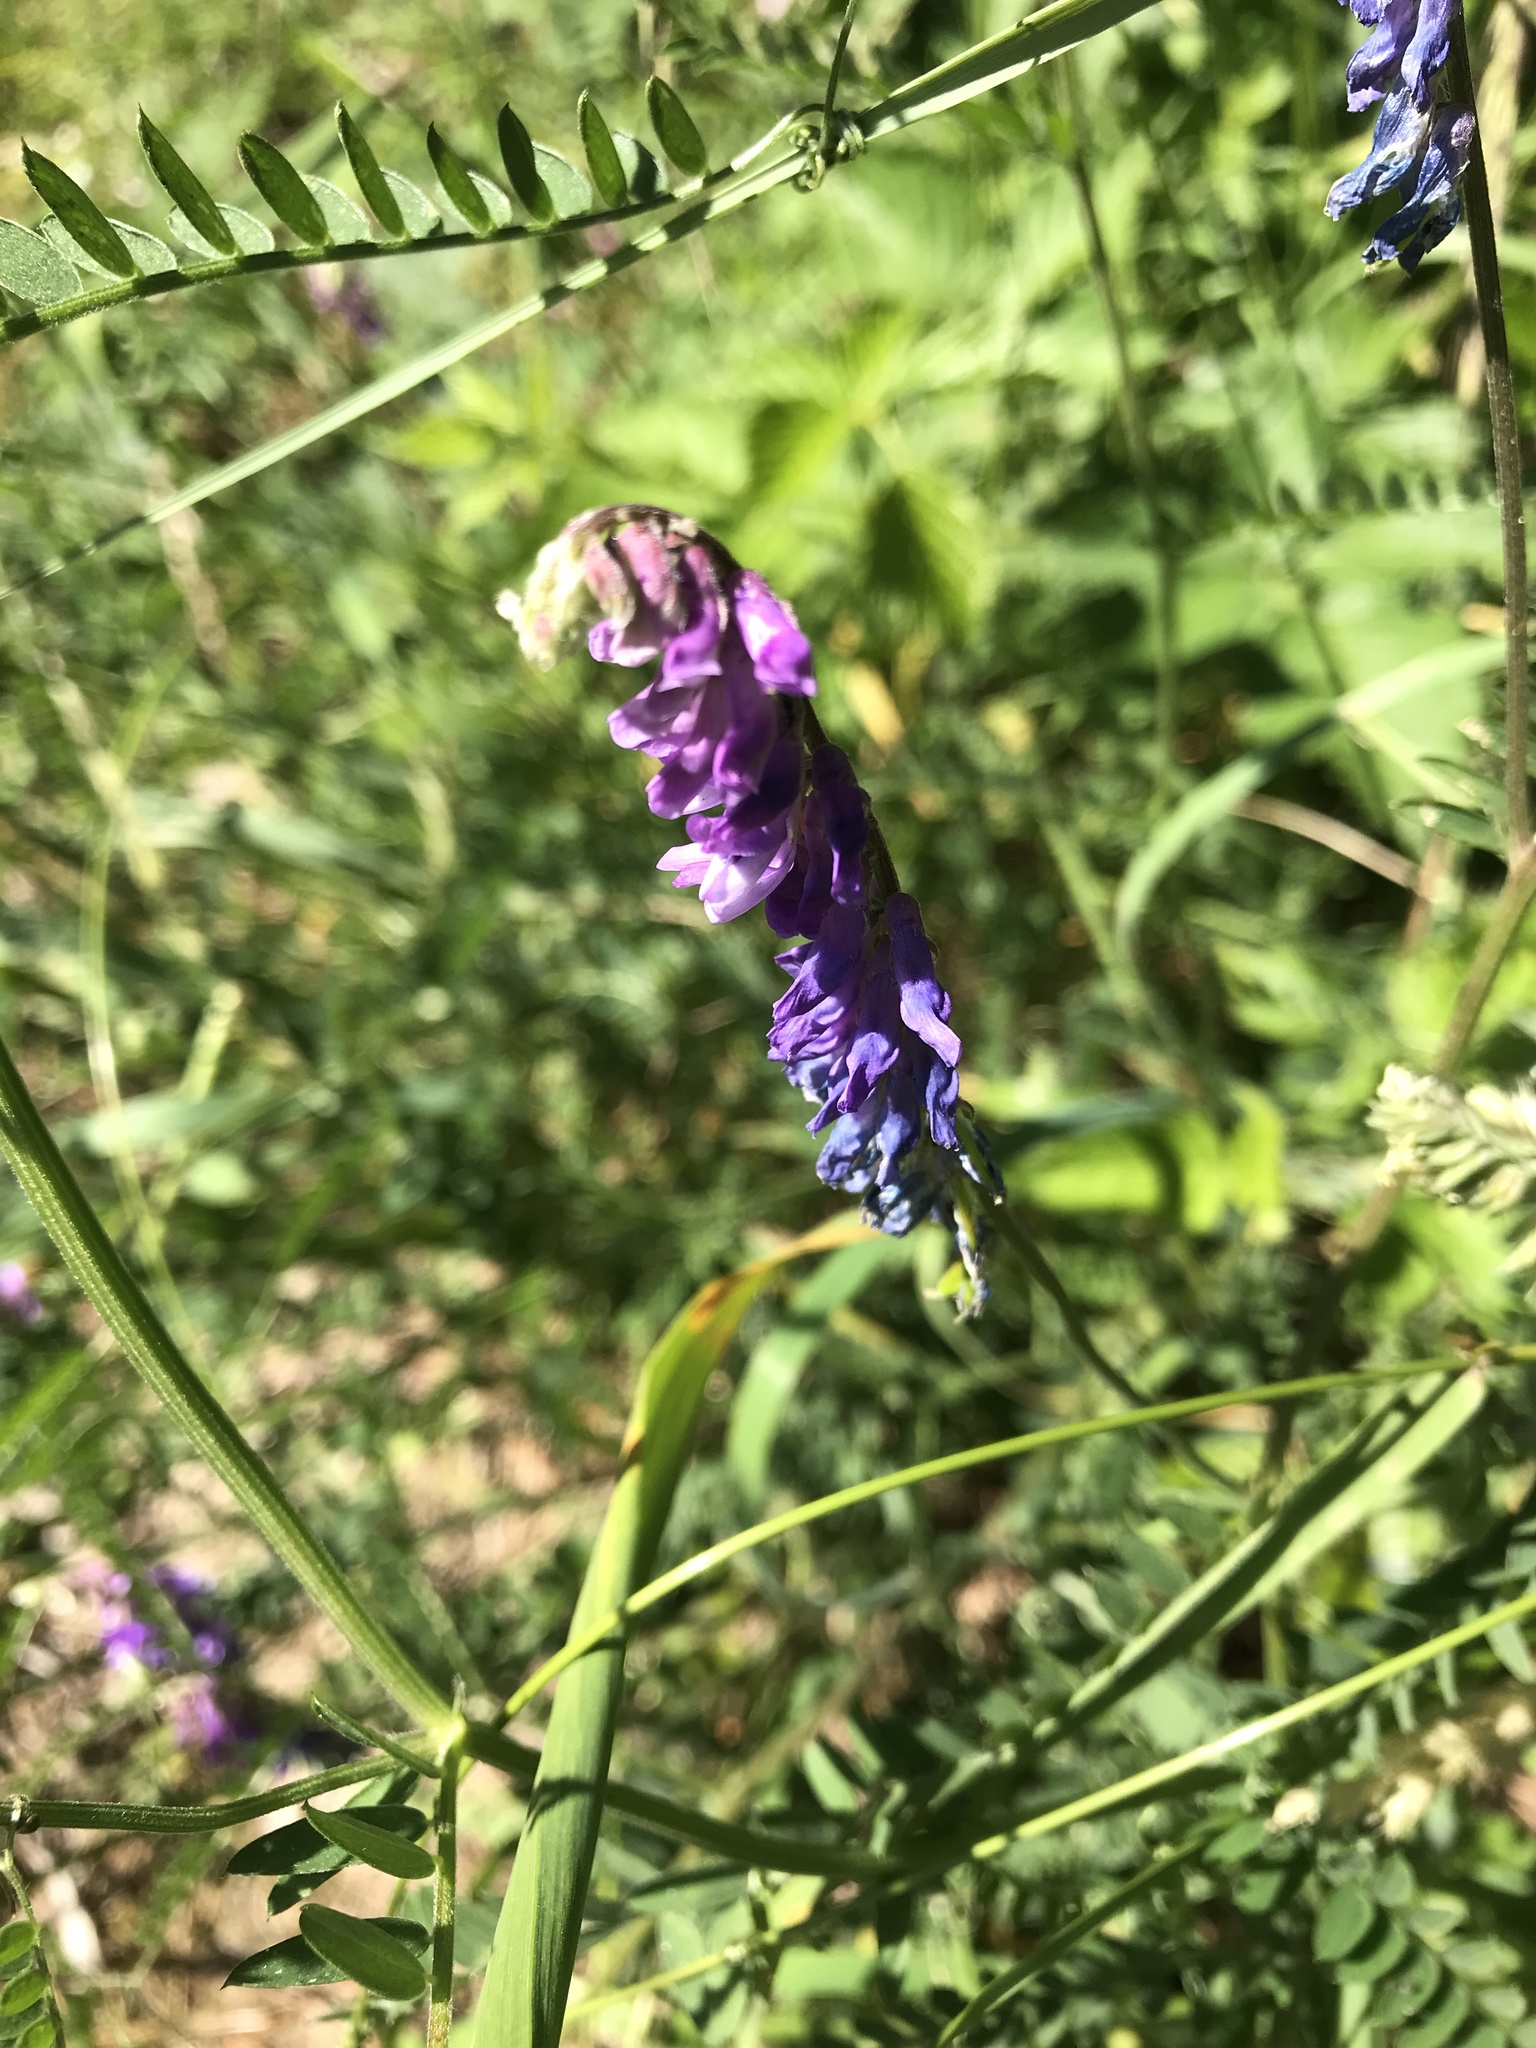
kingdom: Plantae
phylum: Tracheophyta
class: Magnoliopsida
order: Fabales
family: Fabaceae
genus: Vicia
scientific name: Vicia cracca
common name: Bird vetch
